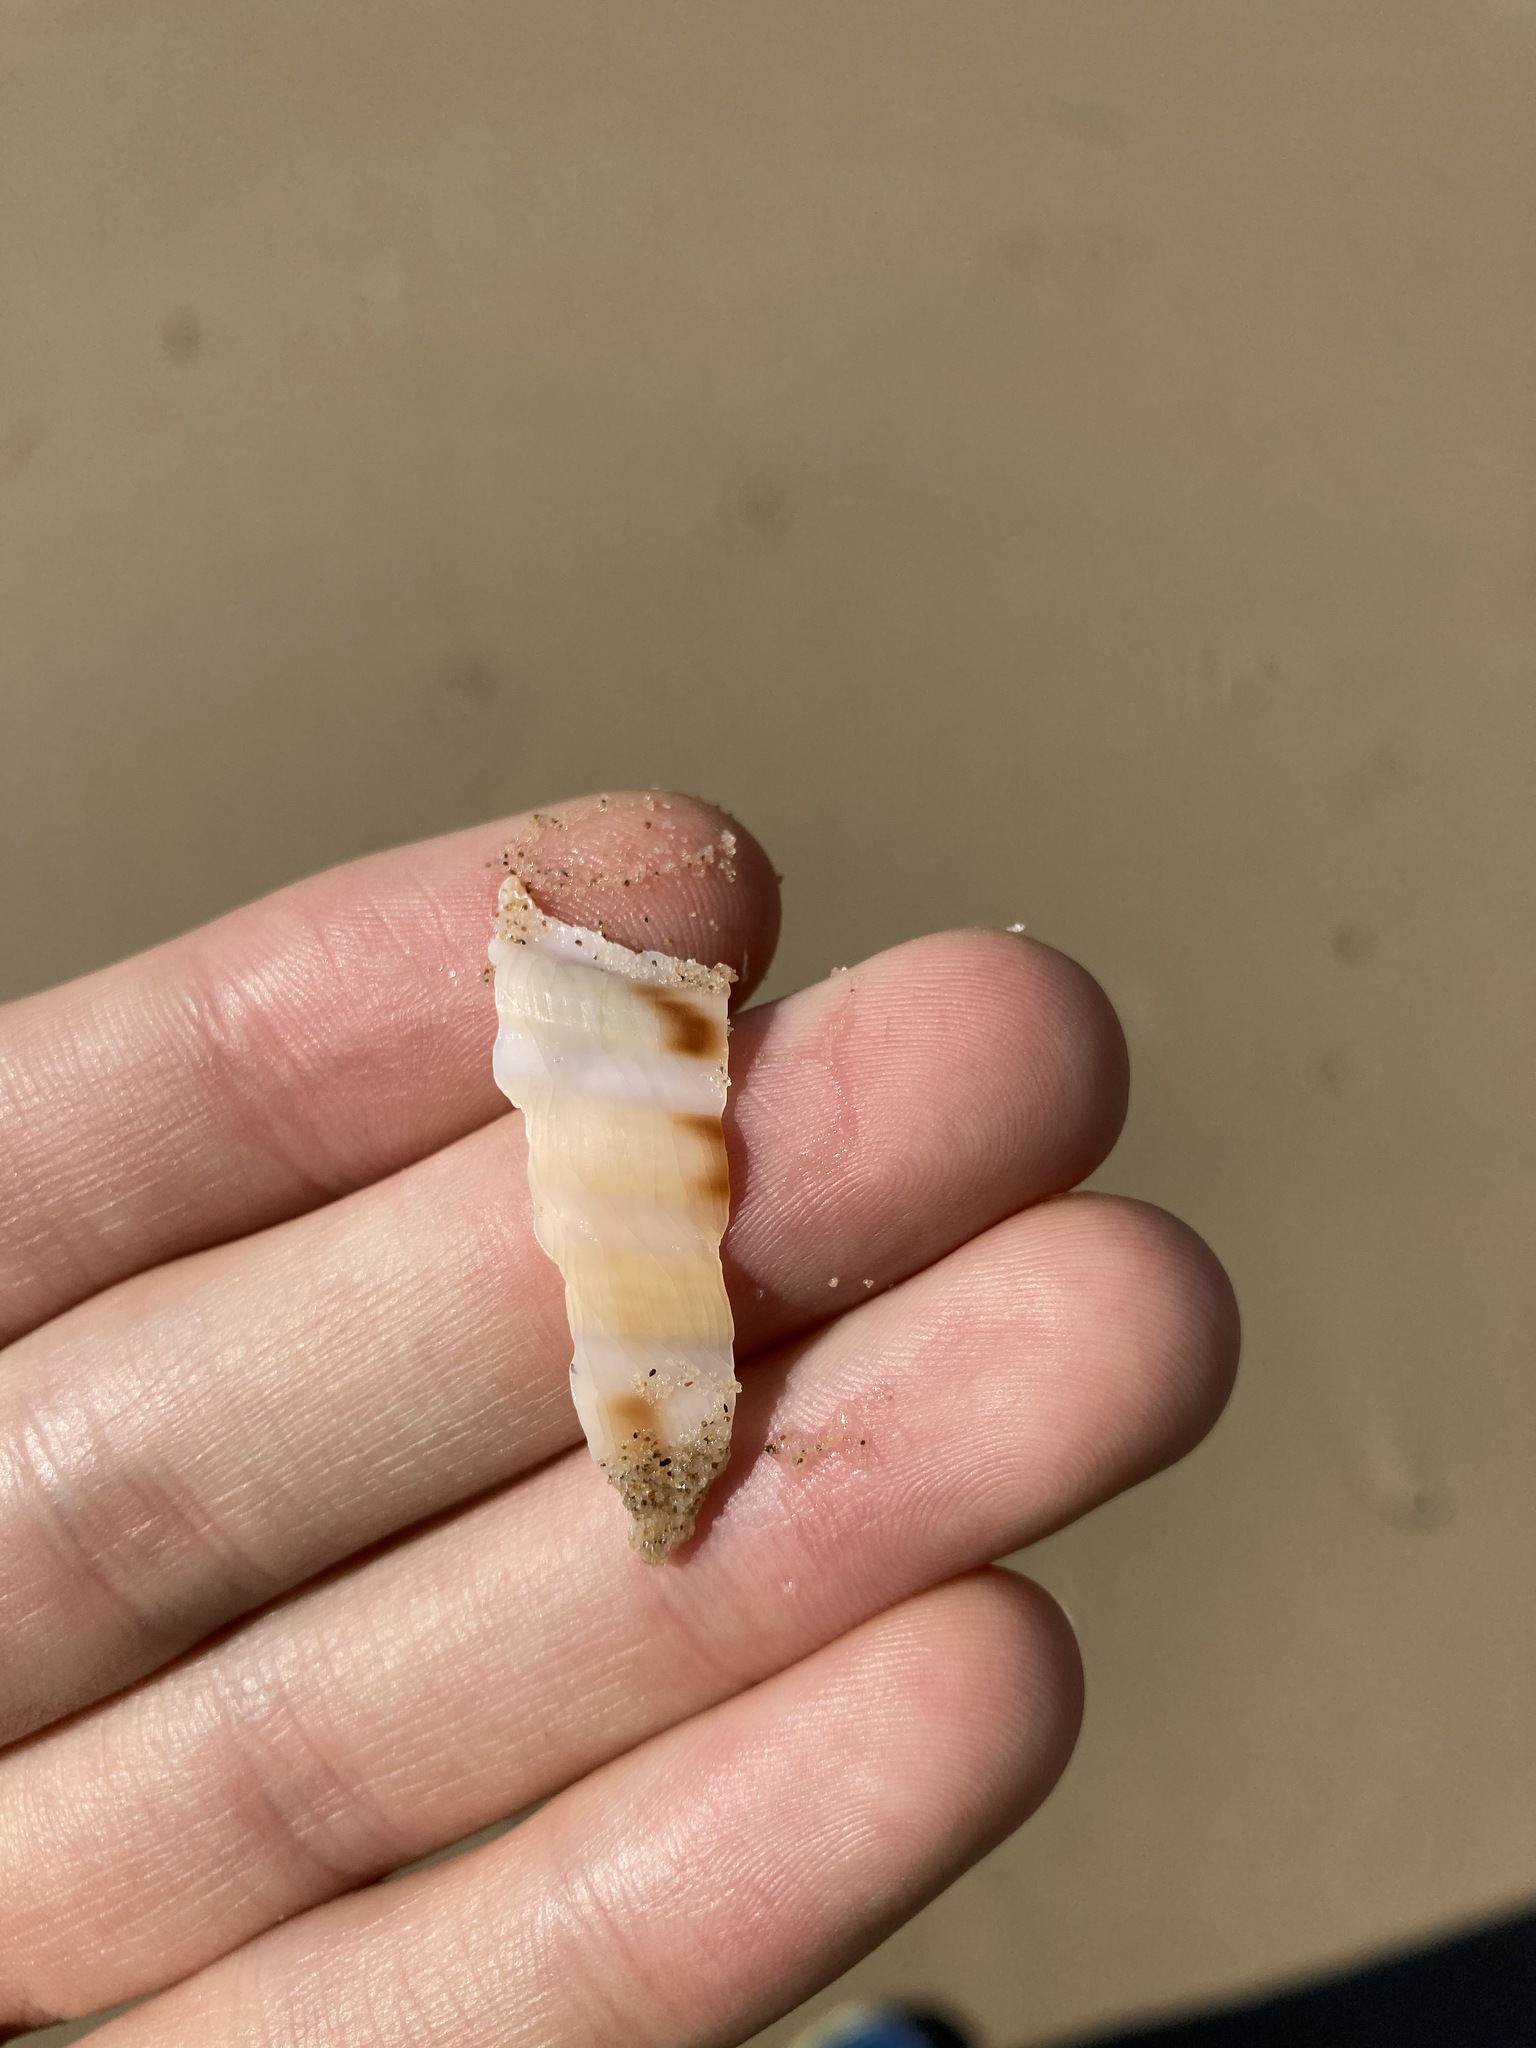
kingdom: Animalia
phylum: Mollusca
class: Gastropoda
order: Littorinimorpha
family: Tonnidae
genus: Tonna
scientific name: Tonna tankervillii
